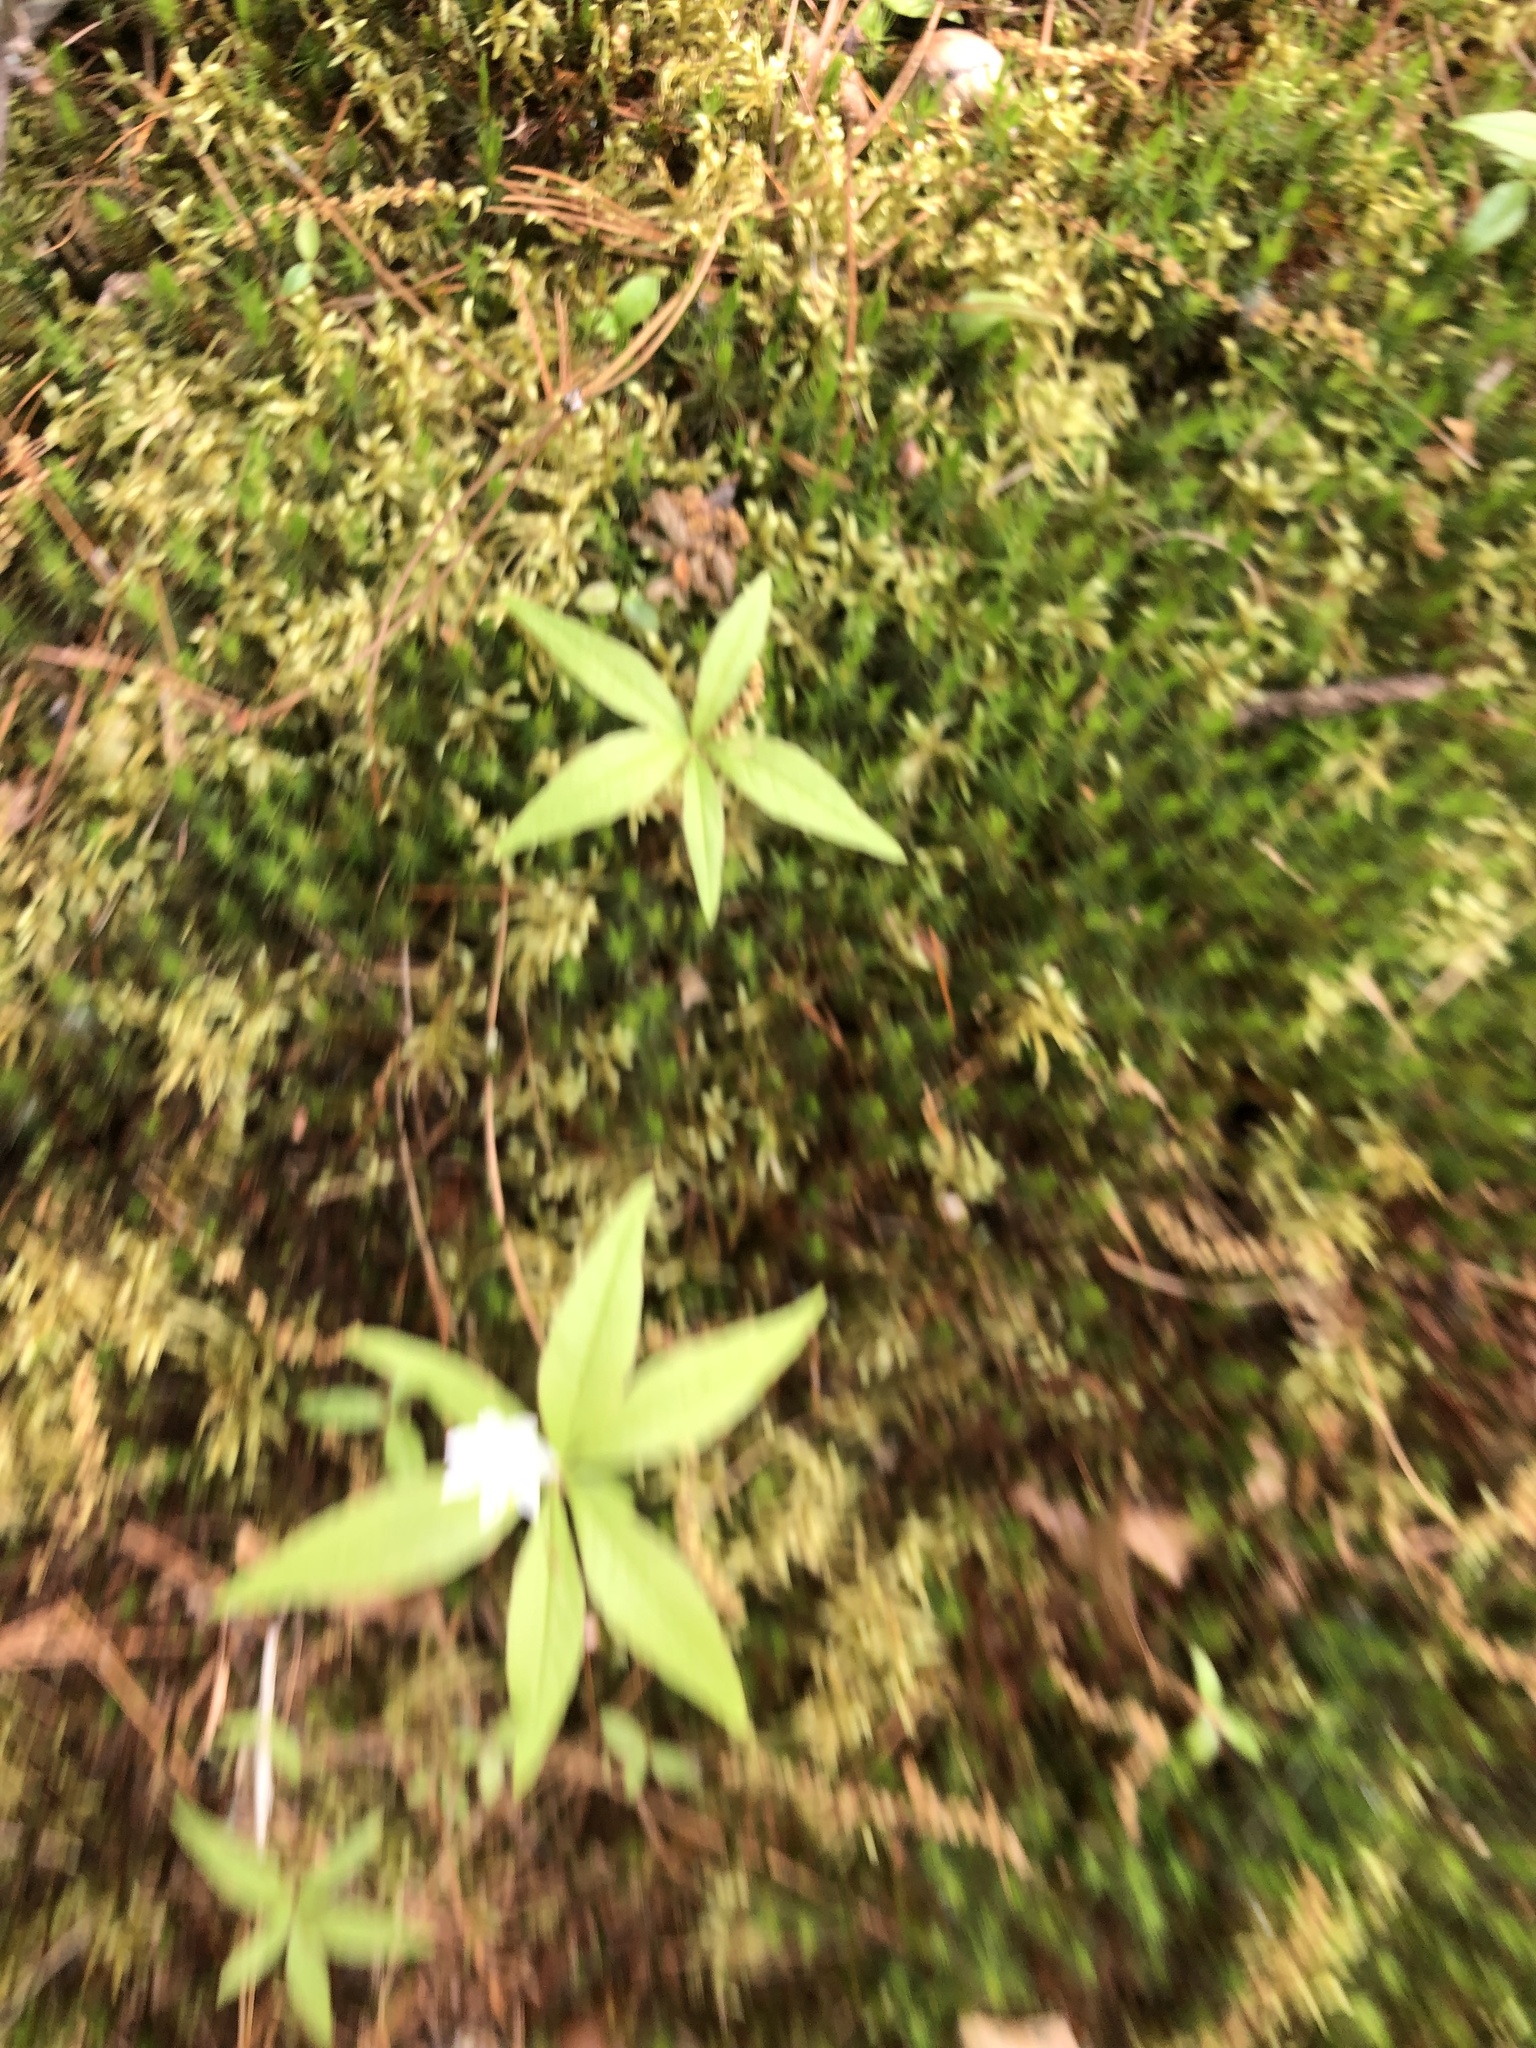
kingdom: Plantae
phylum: Tracheophyta
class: Magnoliopsida
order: Ericales
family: Primulaceae
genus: Lysimachia
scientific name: Lysimachia borealis
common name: American starflower
